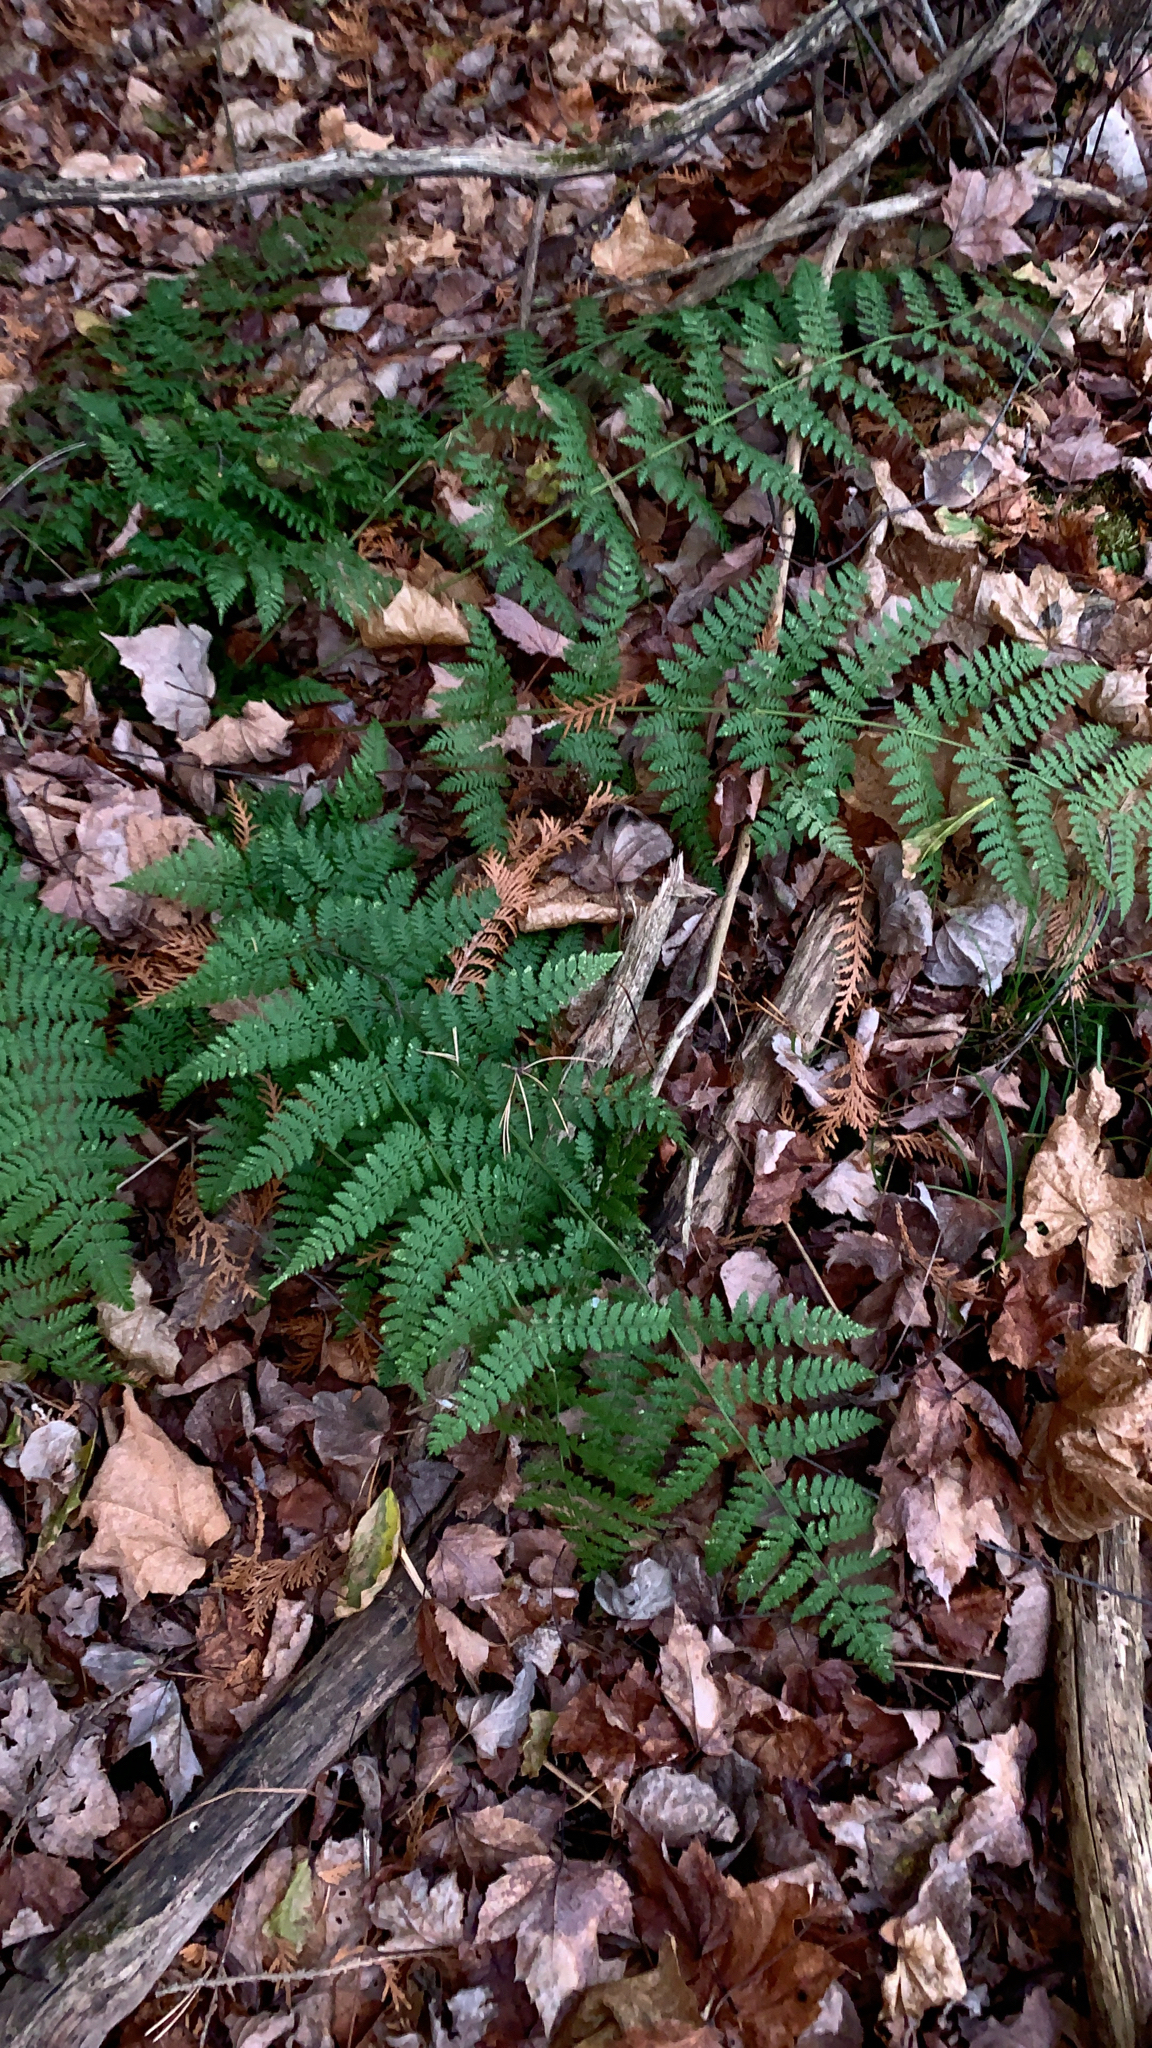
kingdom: Plantae
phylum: Tracheophyta
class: Polypodiopsida
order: Polypodiales
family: Dryopteridaceae
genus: Dryopteris
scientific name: Dryopteris intermedia
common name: Evergreen wood fern
